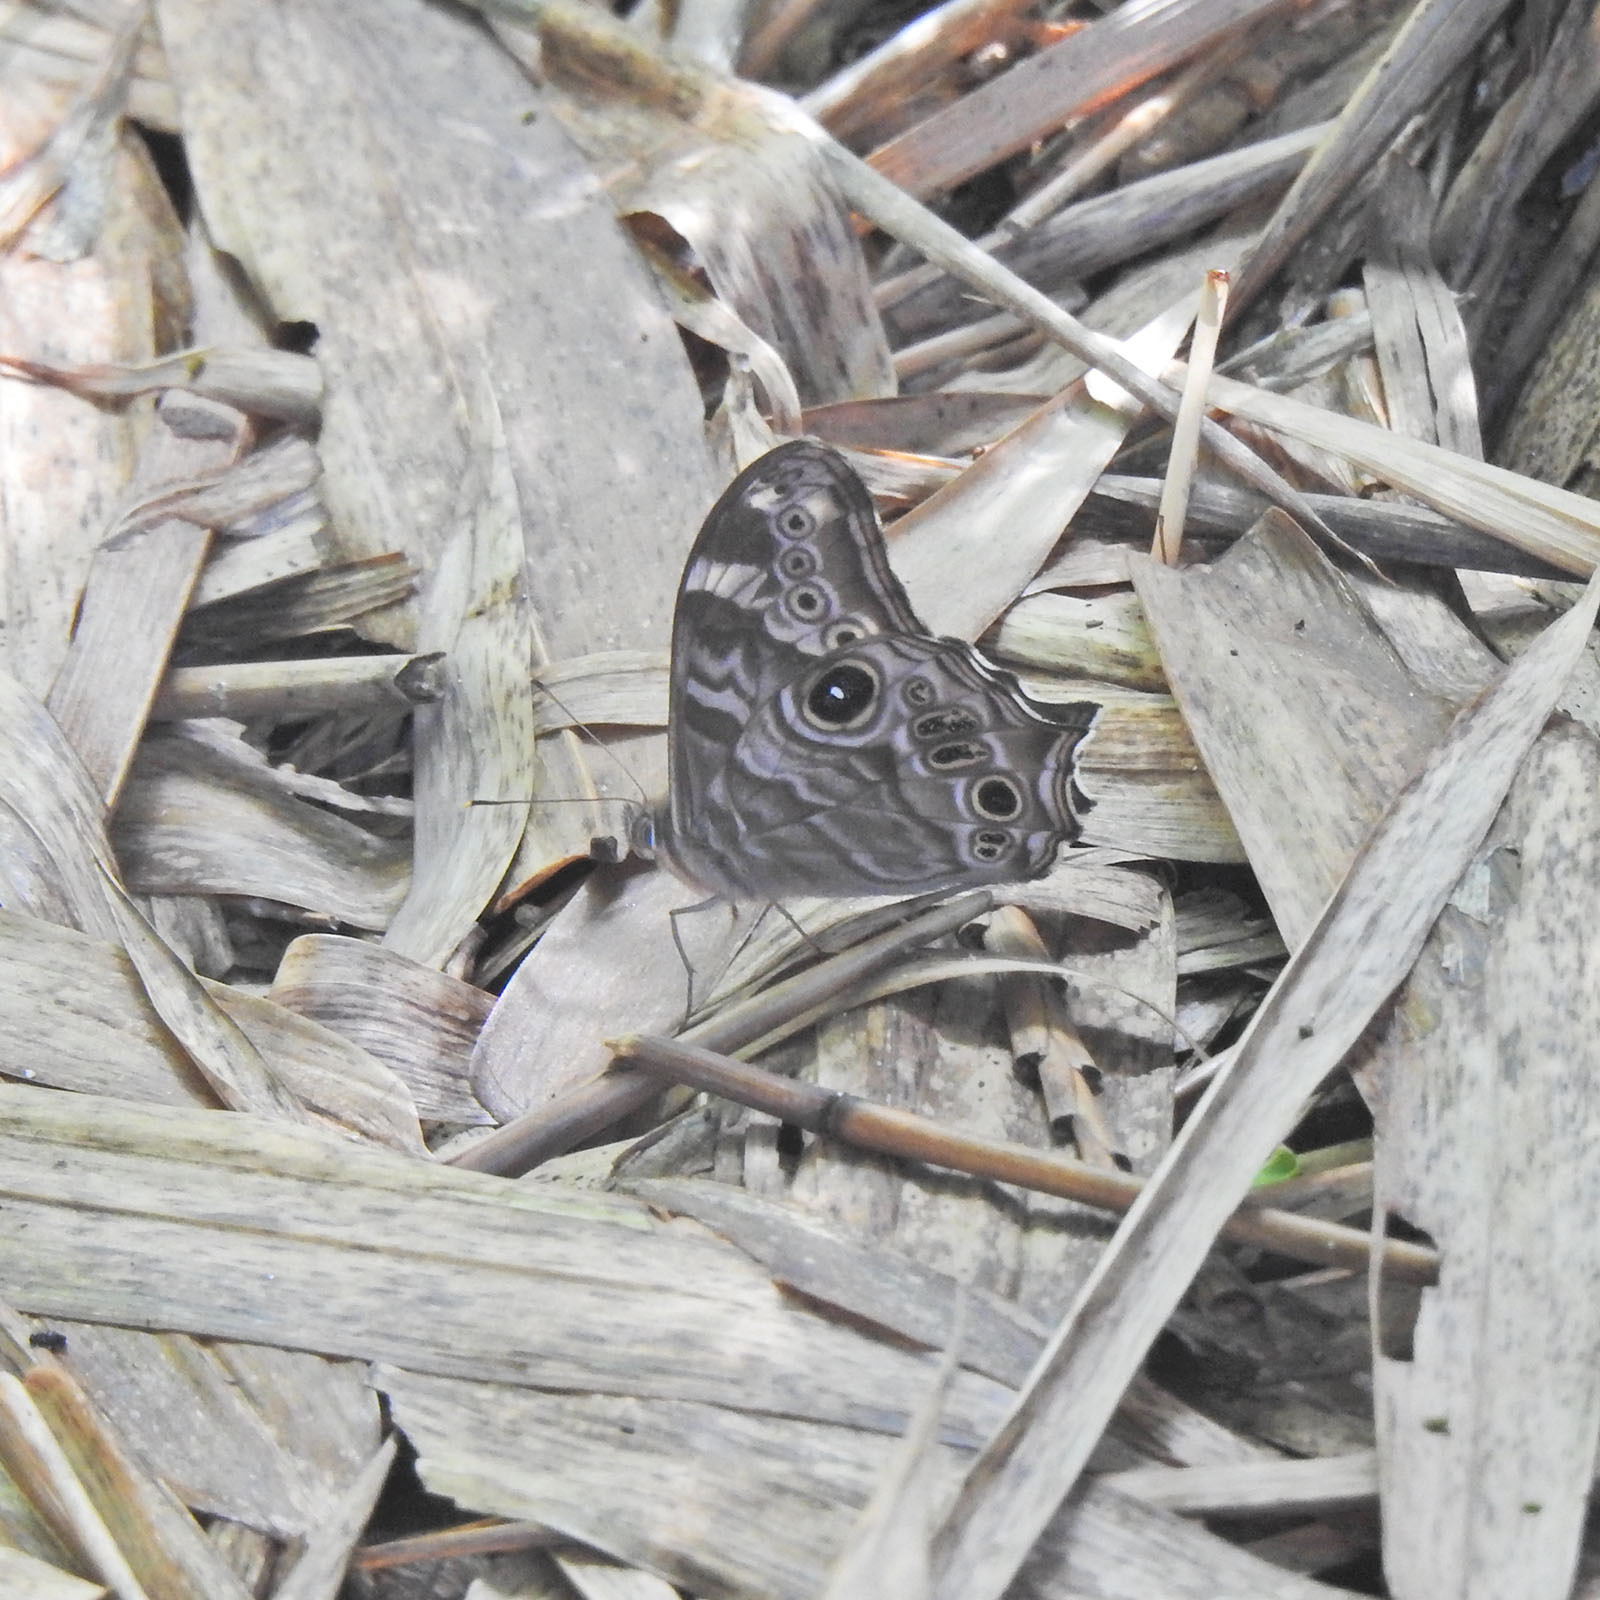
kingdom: Animalia
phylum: Arthropoda
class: Insecta
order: Lepidoptera
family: Nymphalidae
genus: Lethe
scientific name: Lethe rohria
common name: Common treebrown
